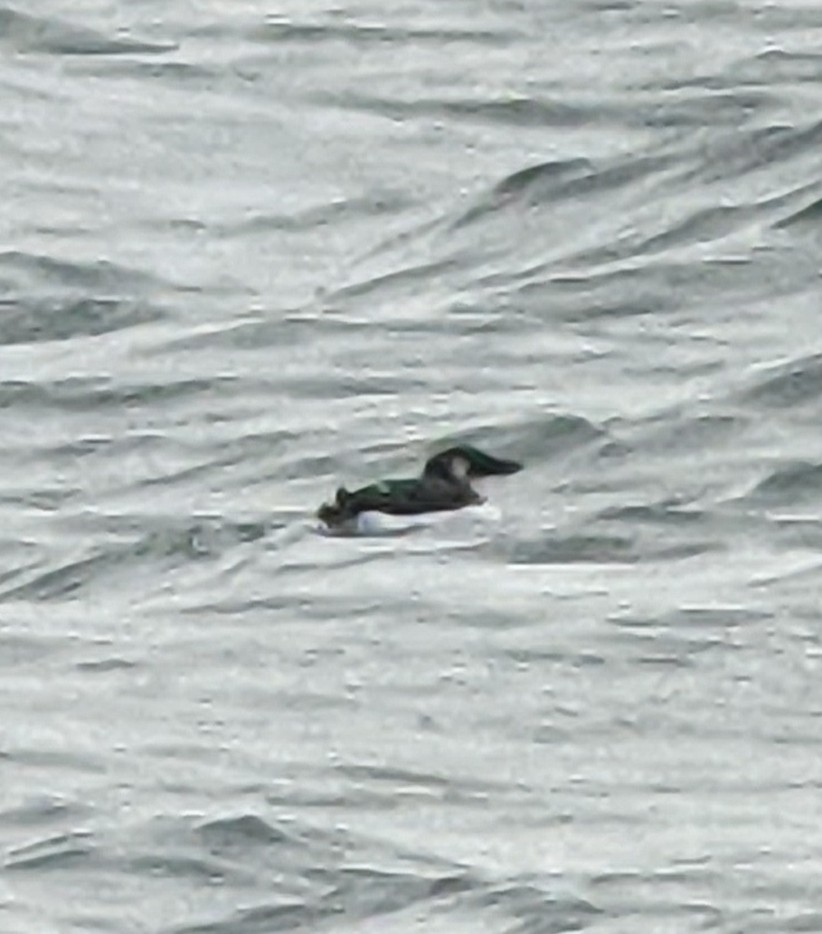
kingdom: Animalia
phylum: Chordata
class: Aves
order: Charadriiformes
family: Alcidae
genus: Uria
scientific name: Uria lomvia
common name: Thick-billed murre
